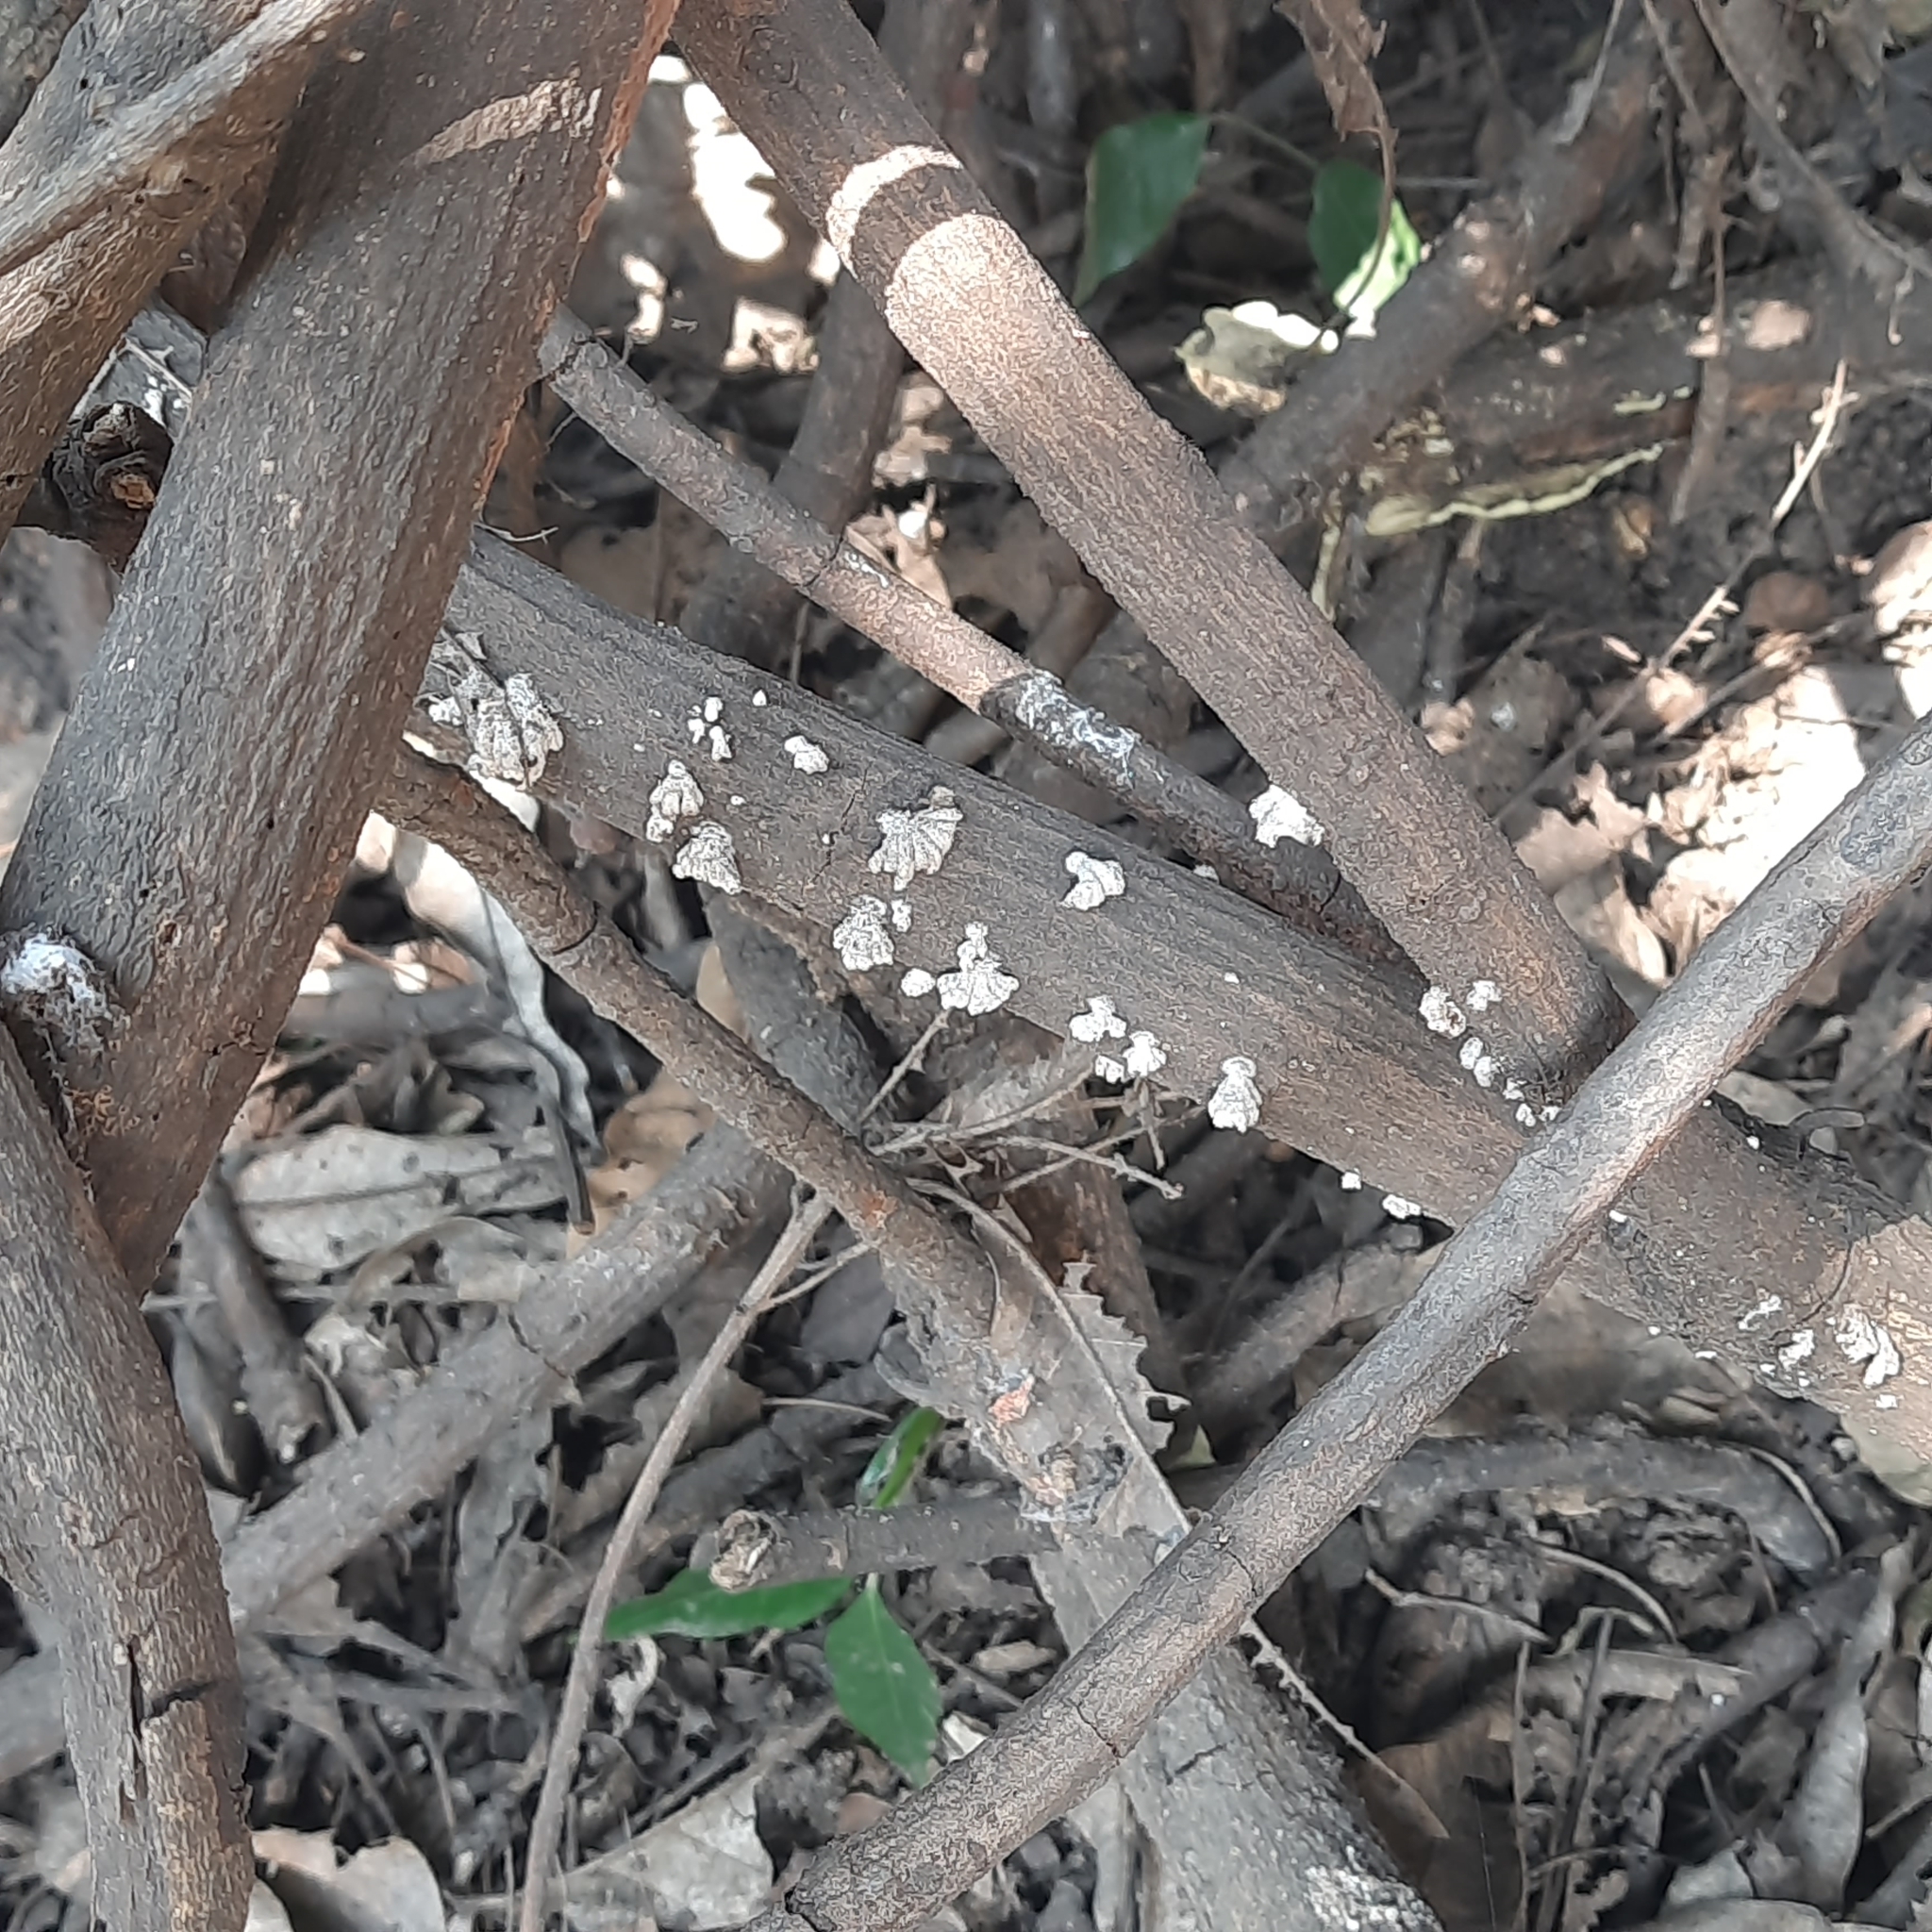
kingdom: Fungi
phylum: Basidiomycota
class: Agaricomycetes
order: Agaricales
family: Schizophyllaceae
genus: Schizophyllum
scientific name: Schizophyllum commune
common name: Common porecrust
